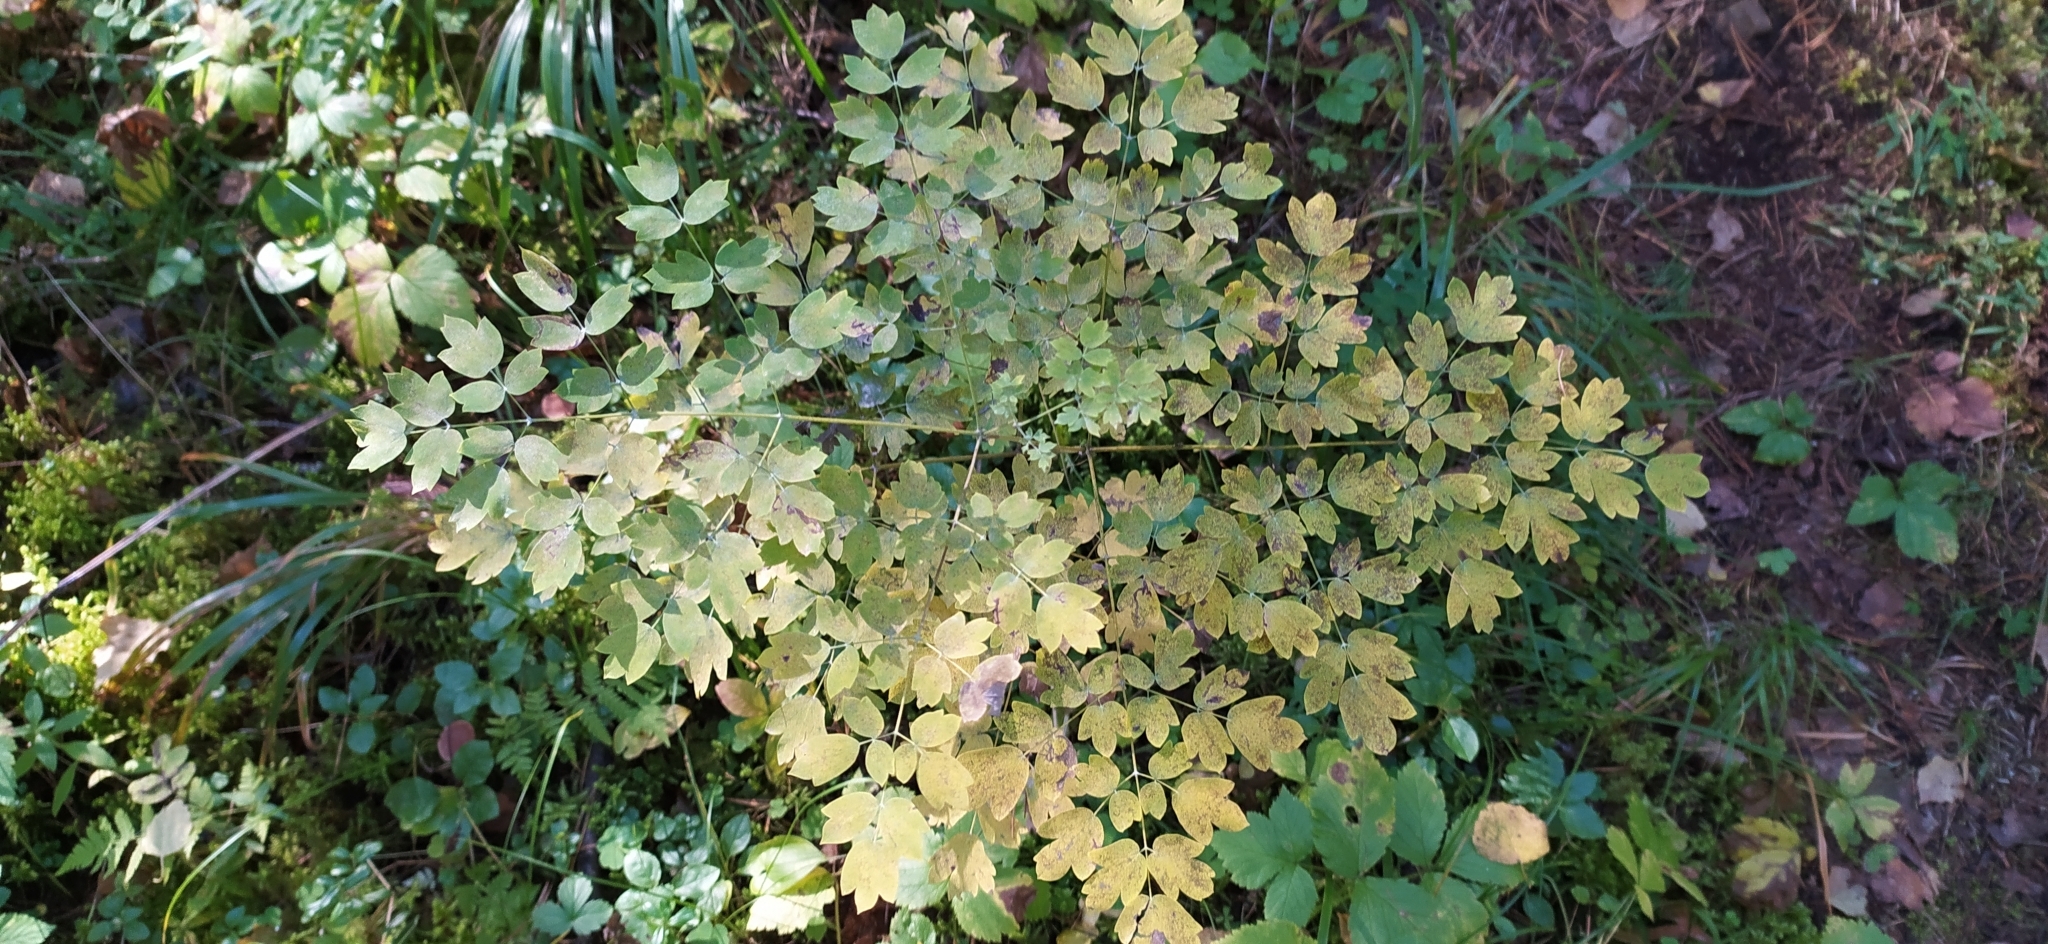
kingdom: Plantae
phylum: Tracheophyta
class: Magnoliopsida
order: Ranunculales
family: Ranunculaceae
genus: Thalictrum
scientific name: Thalictrum minus
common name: Lesser meadow-rue
